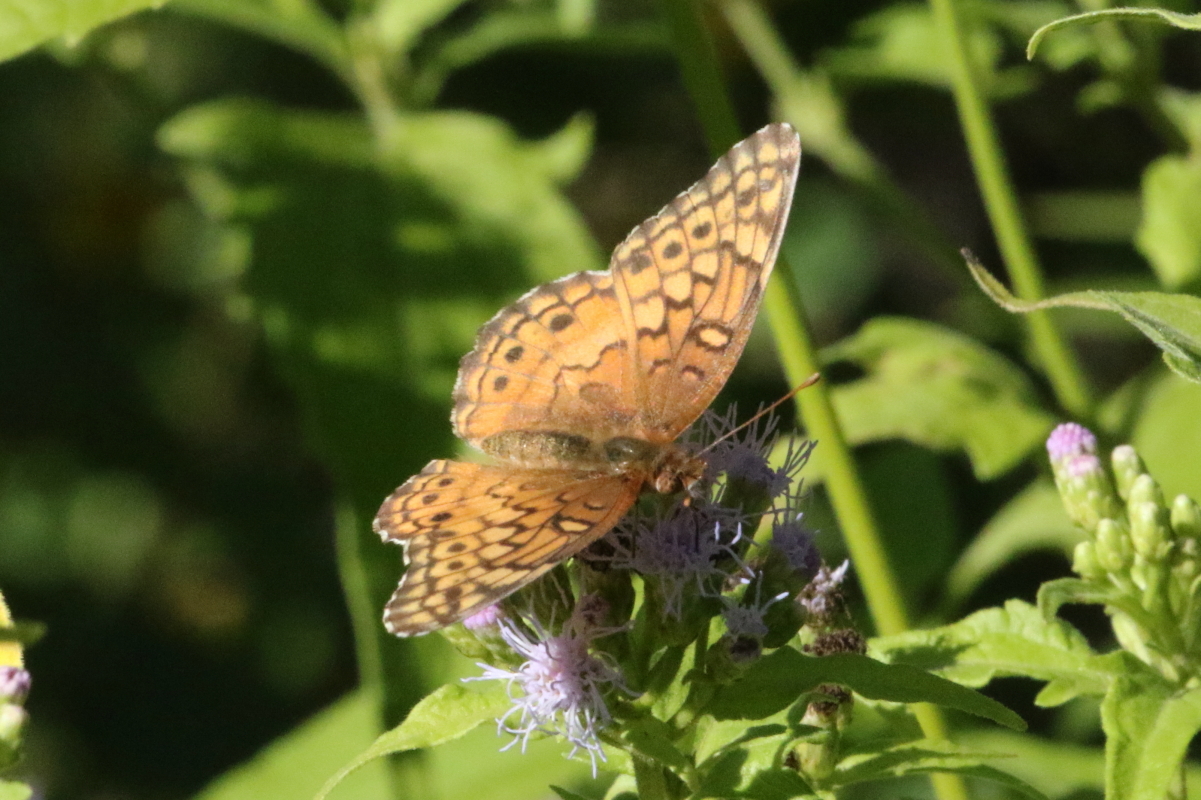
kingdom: Animalia
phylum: Arthropoda
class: Insecta
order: Lepidoptera
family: Nymphalidae
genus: Euptoieta
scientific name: Euptoieta claudia
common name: Variegated fritillary
